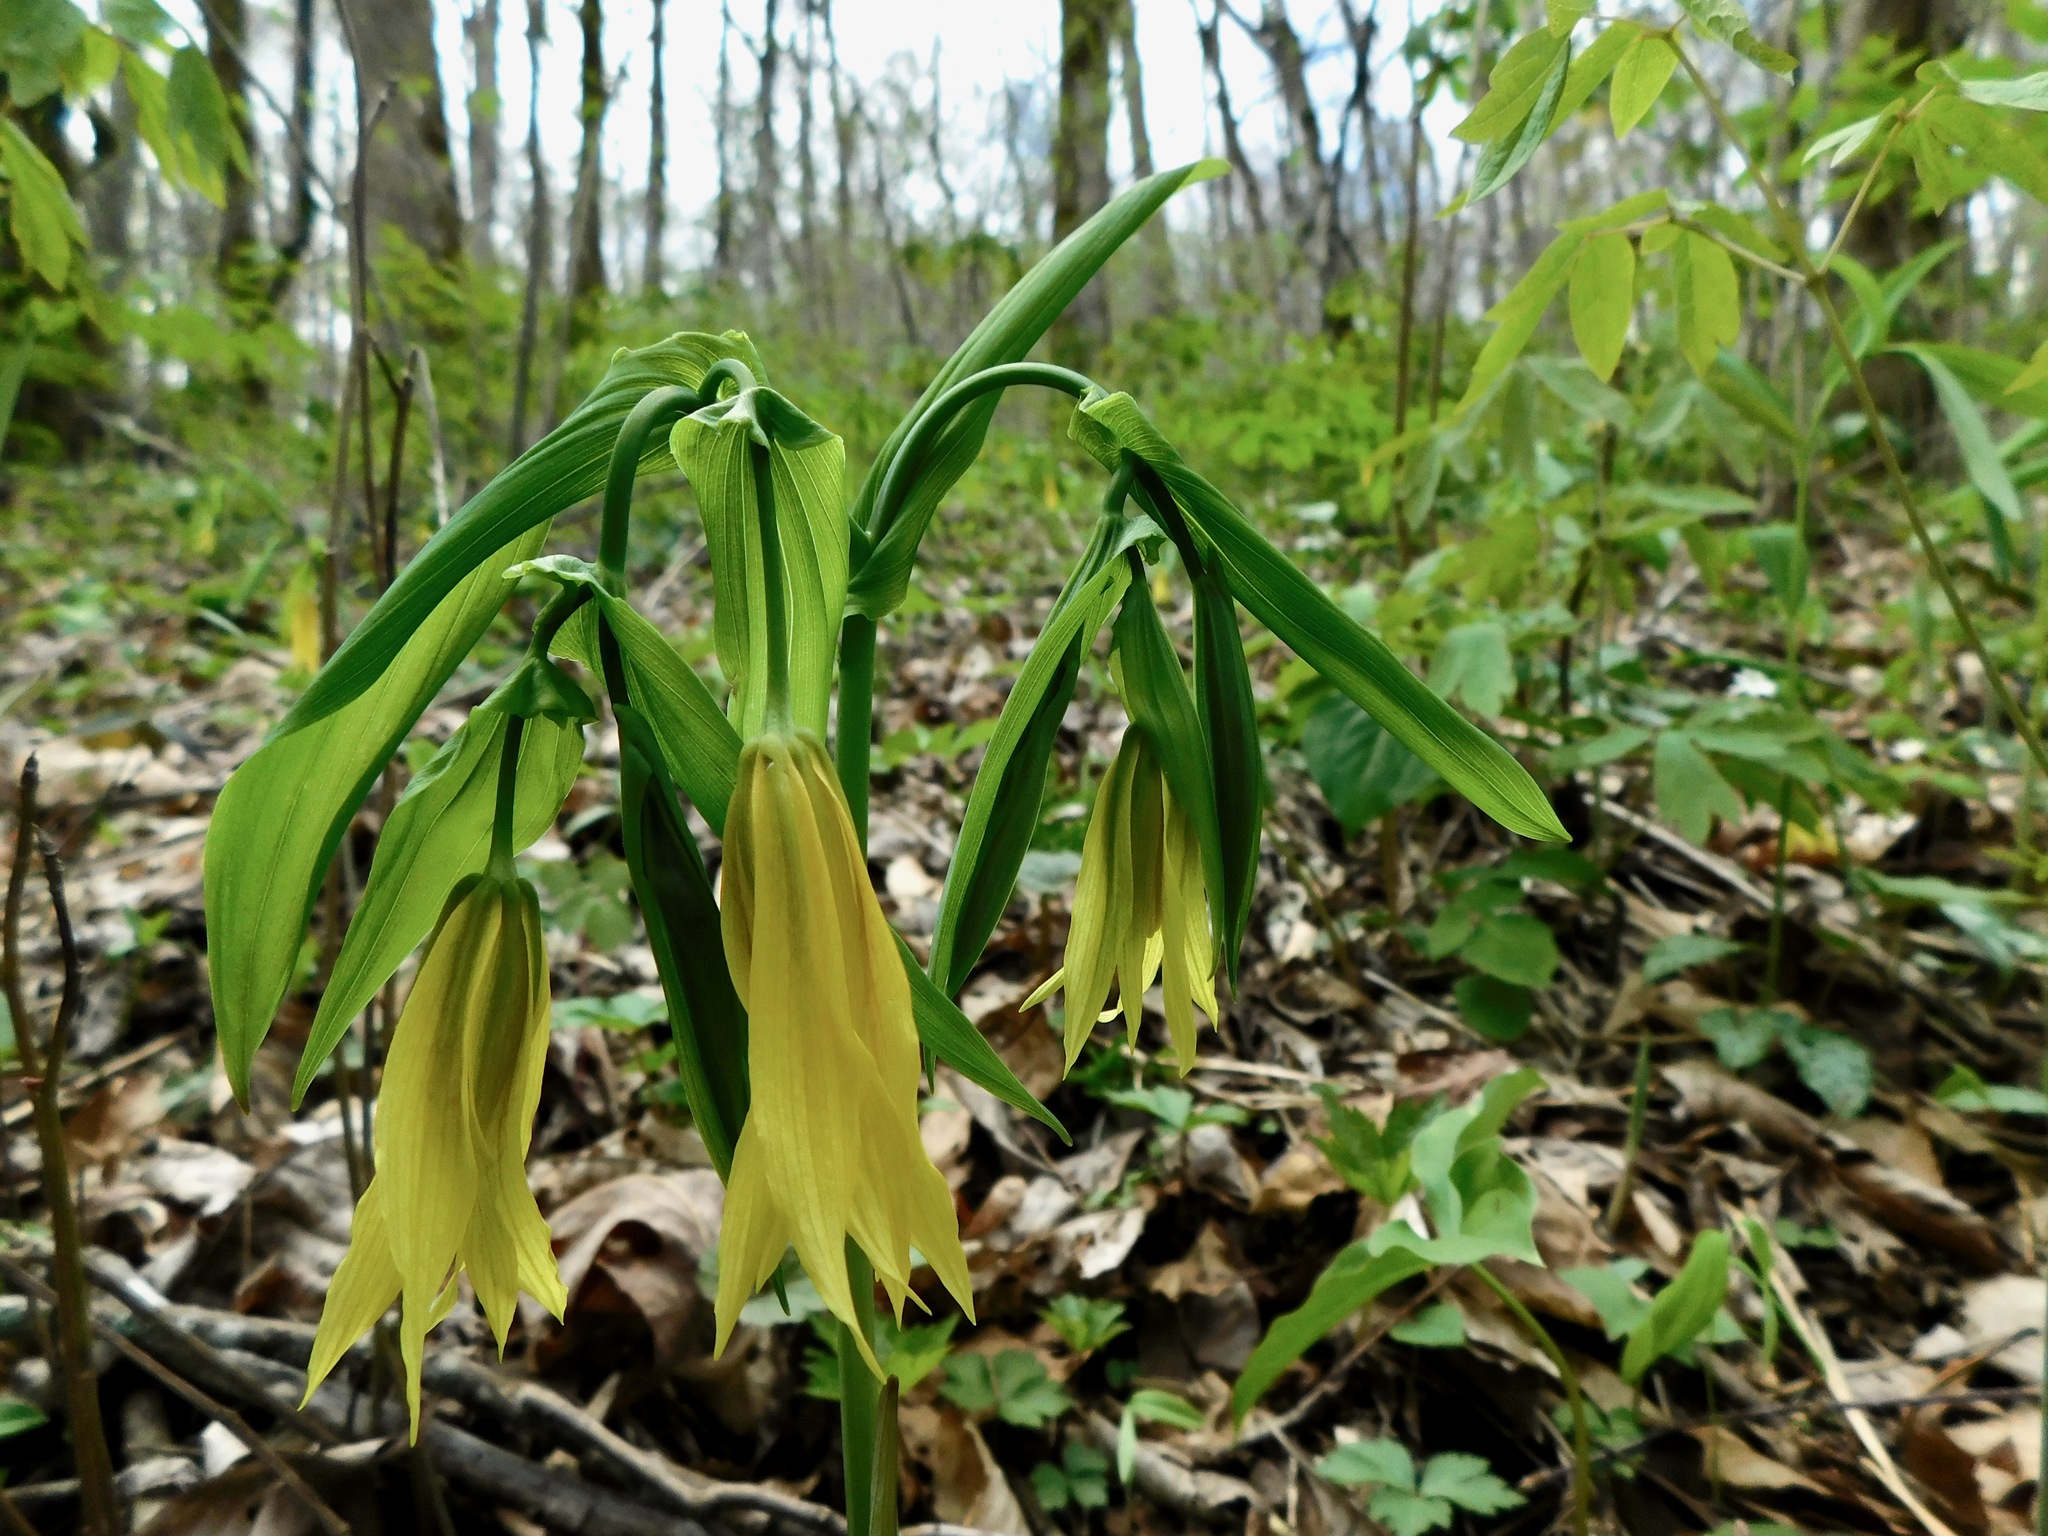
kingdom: Plantae
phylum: Tracheophyta
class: Liliopsida
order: Liliales
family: Colchicaceae
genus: Uvularia
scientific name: Uvularia grandiflora
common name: Bellwort
